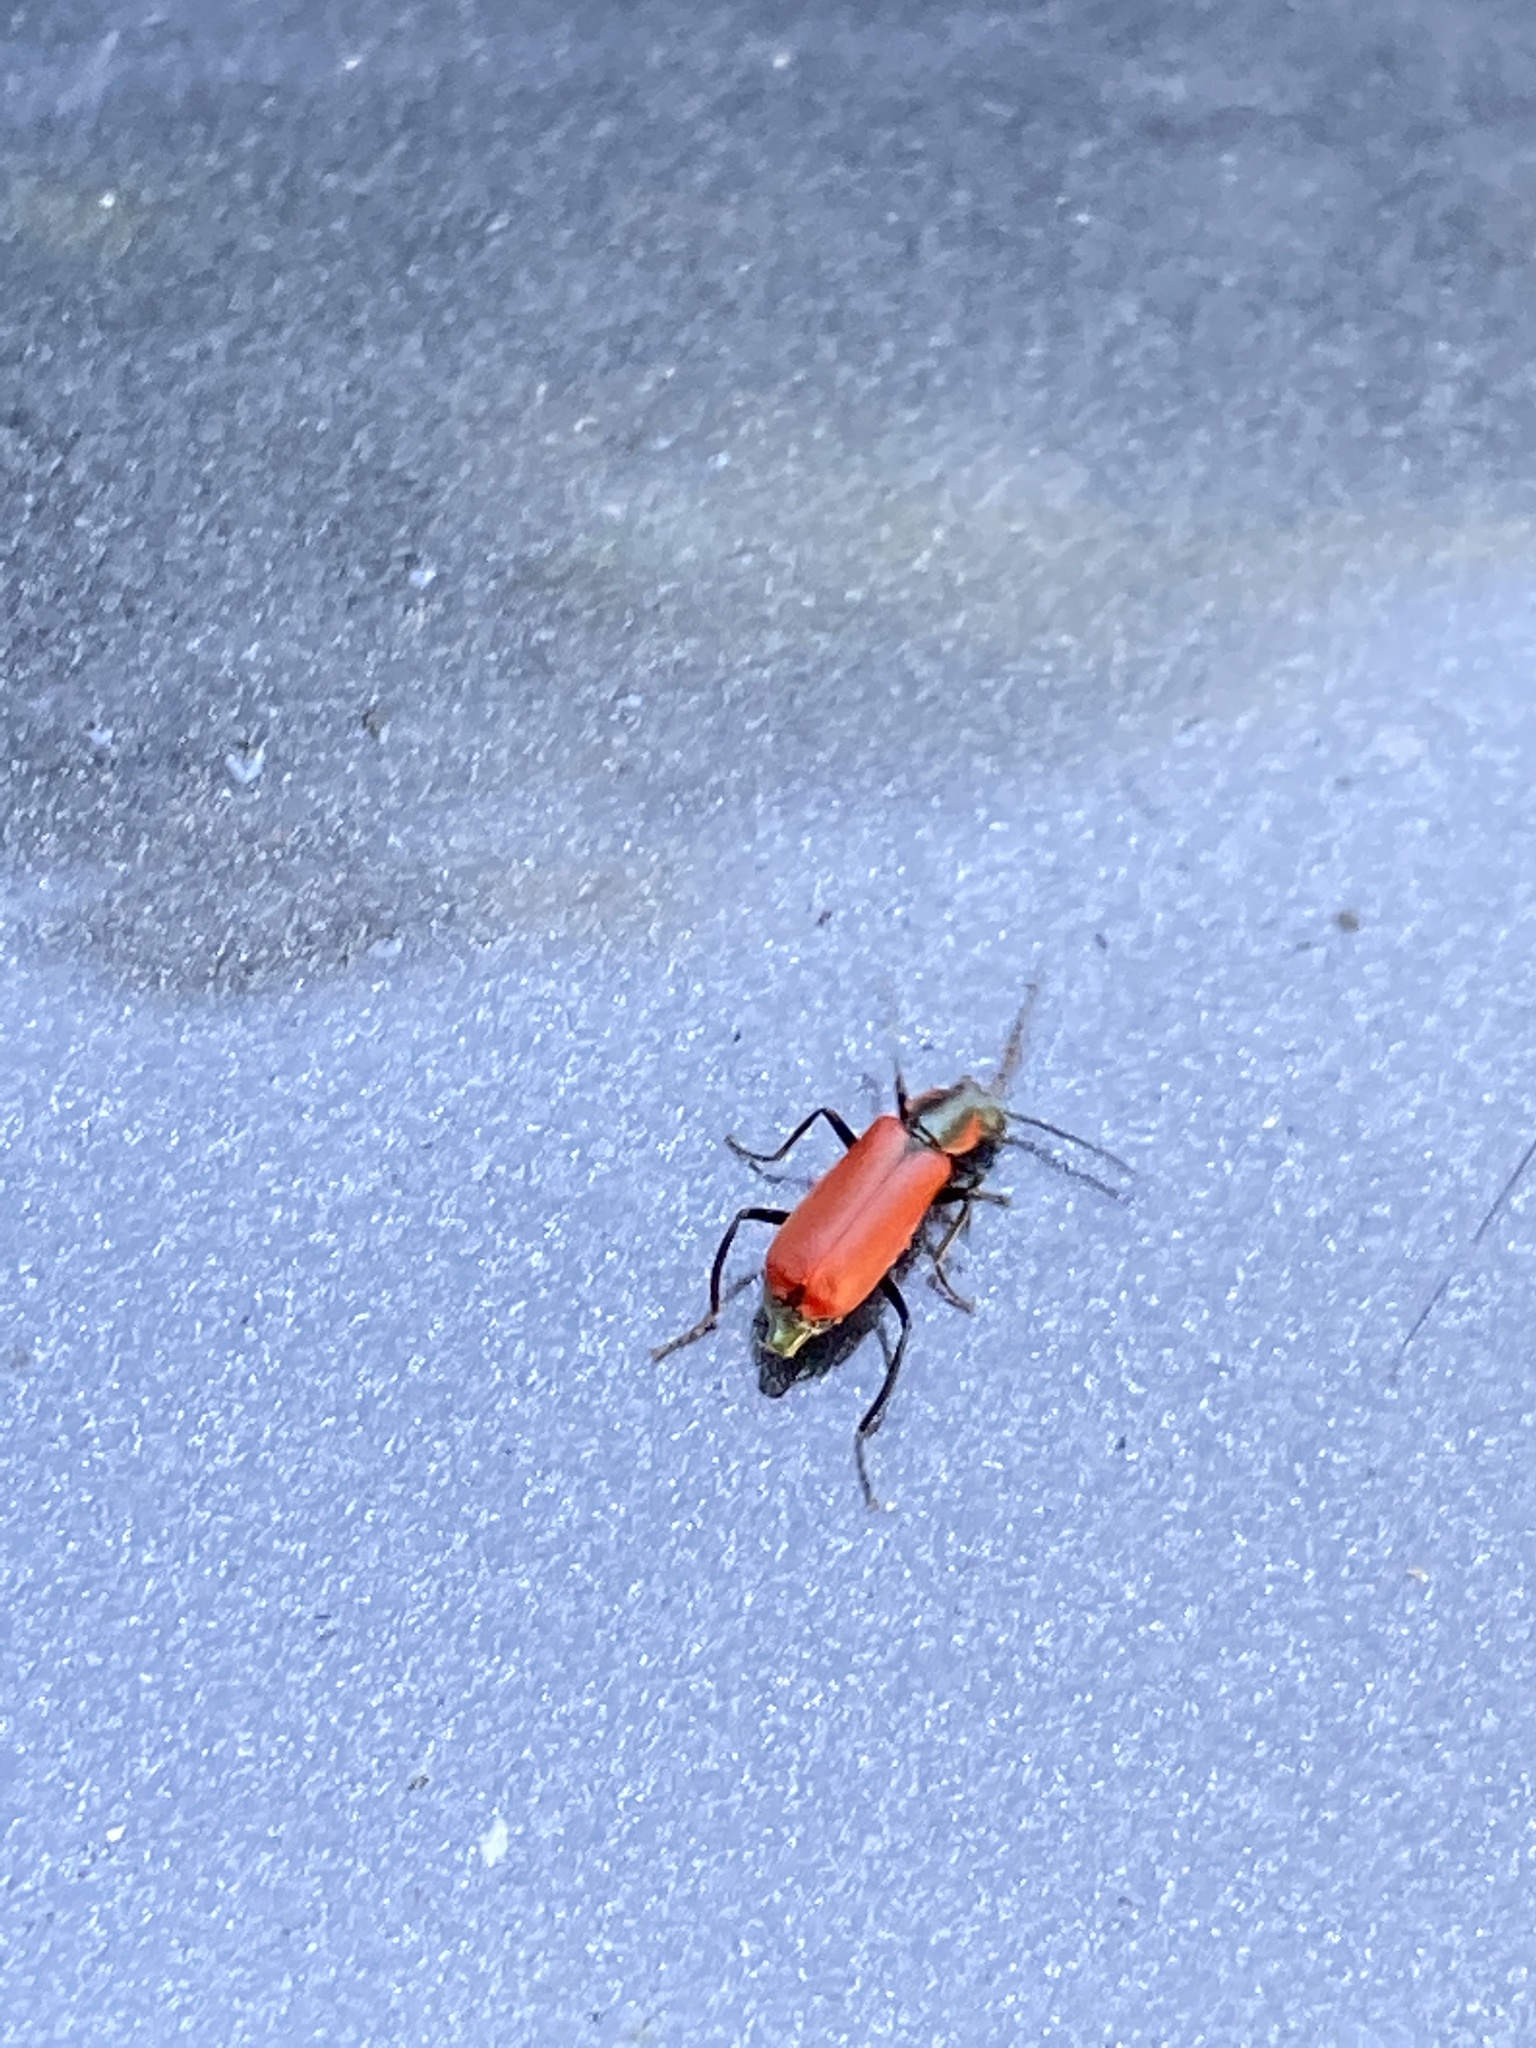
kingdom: Animalia
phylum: Arthropoda
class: Insecta
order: Coleoptera
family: Melyridae
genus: Anthocomus
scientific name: Anthocomus rufus
